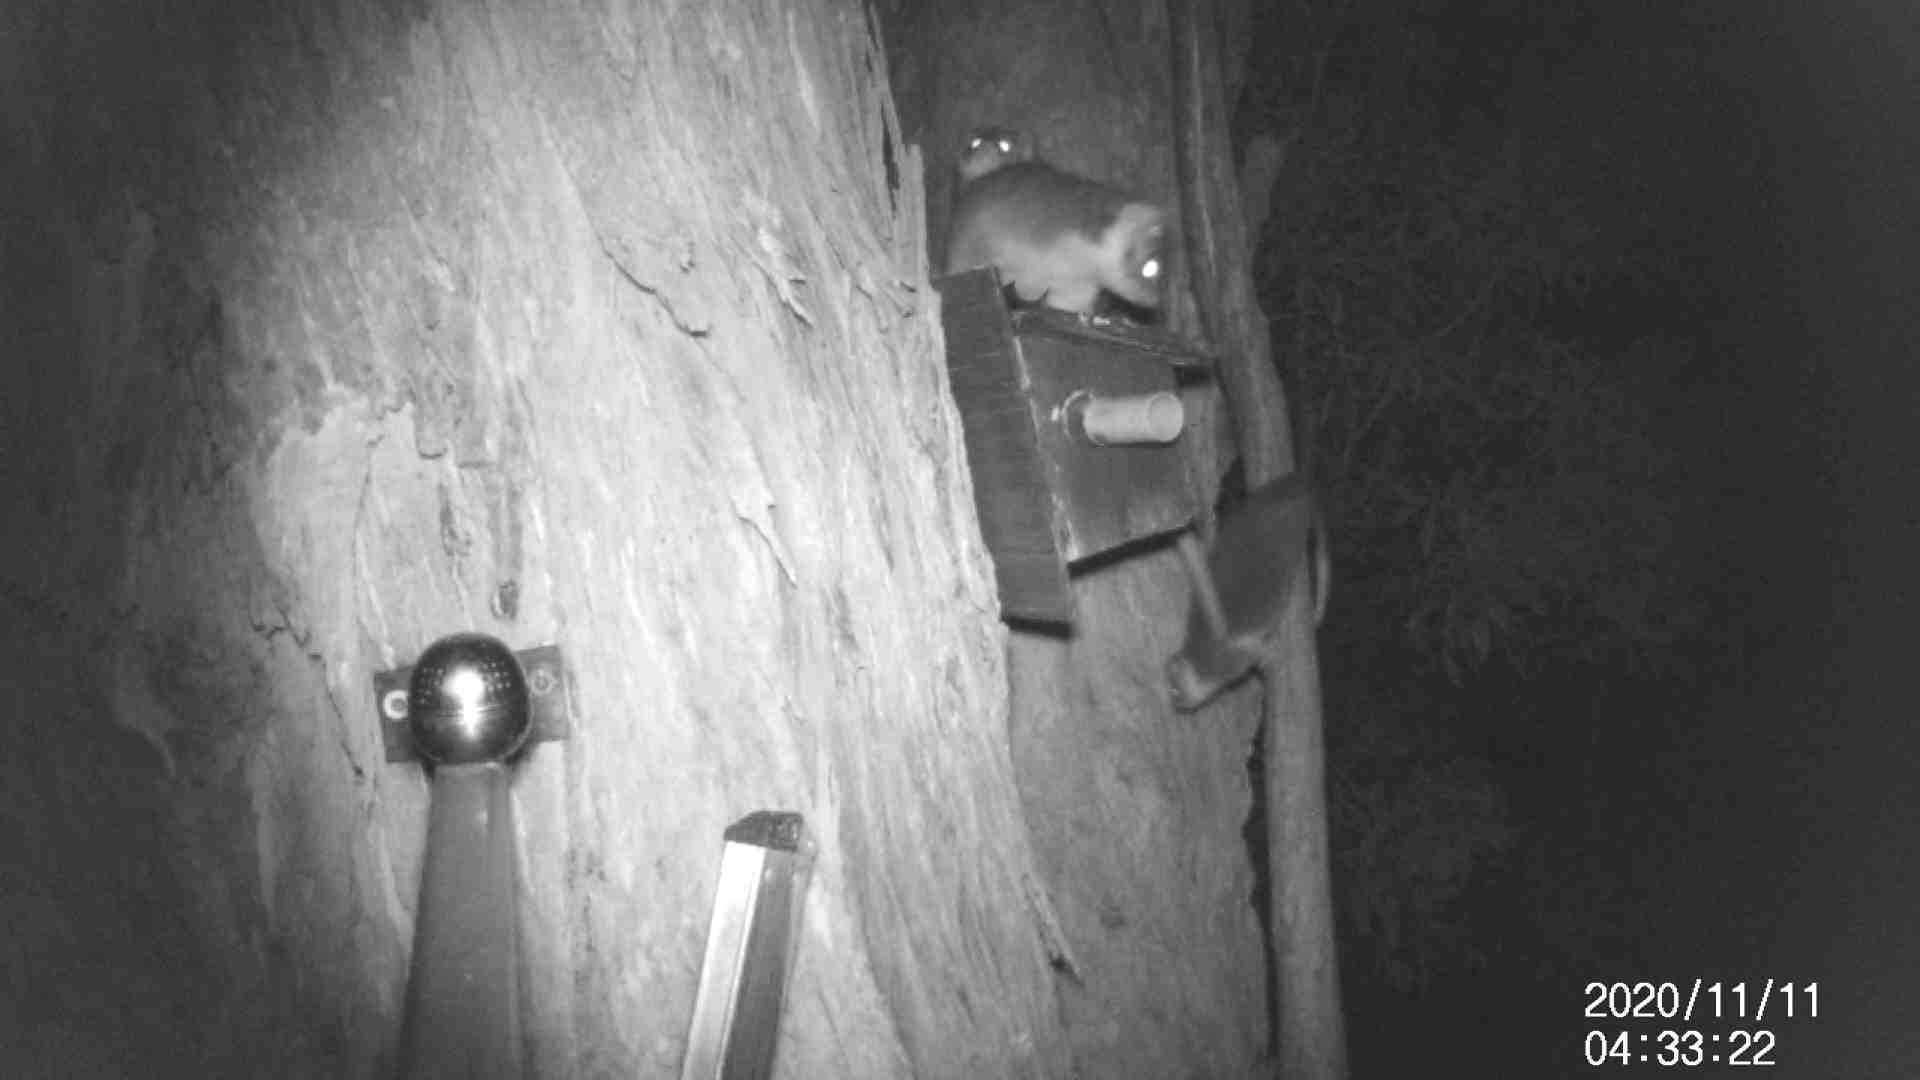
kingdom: Animalia
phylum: Chordata
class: Mammalia
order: Diprotodontia
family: Pseudocheiridae
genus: Pseudocheirus
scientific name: Pseudocheirus peregrinus
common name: Common ringtail possum
